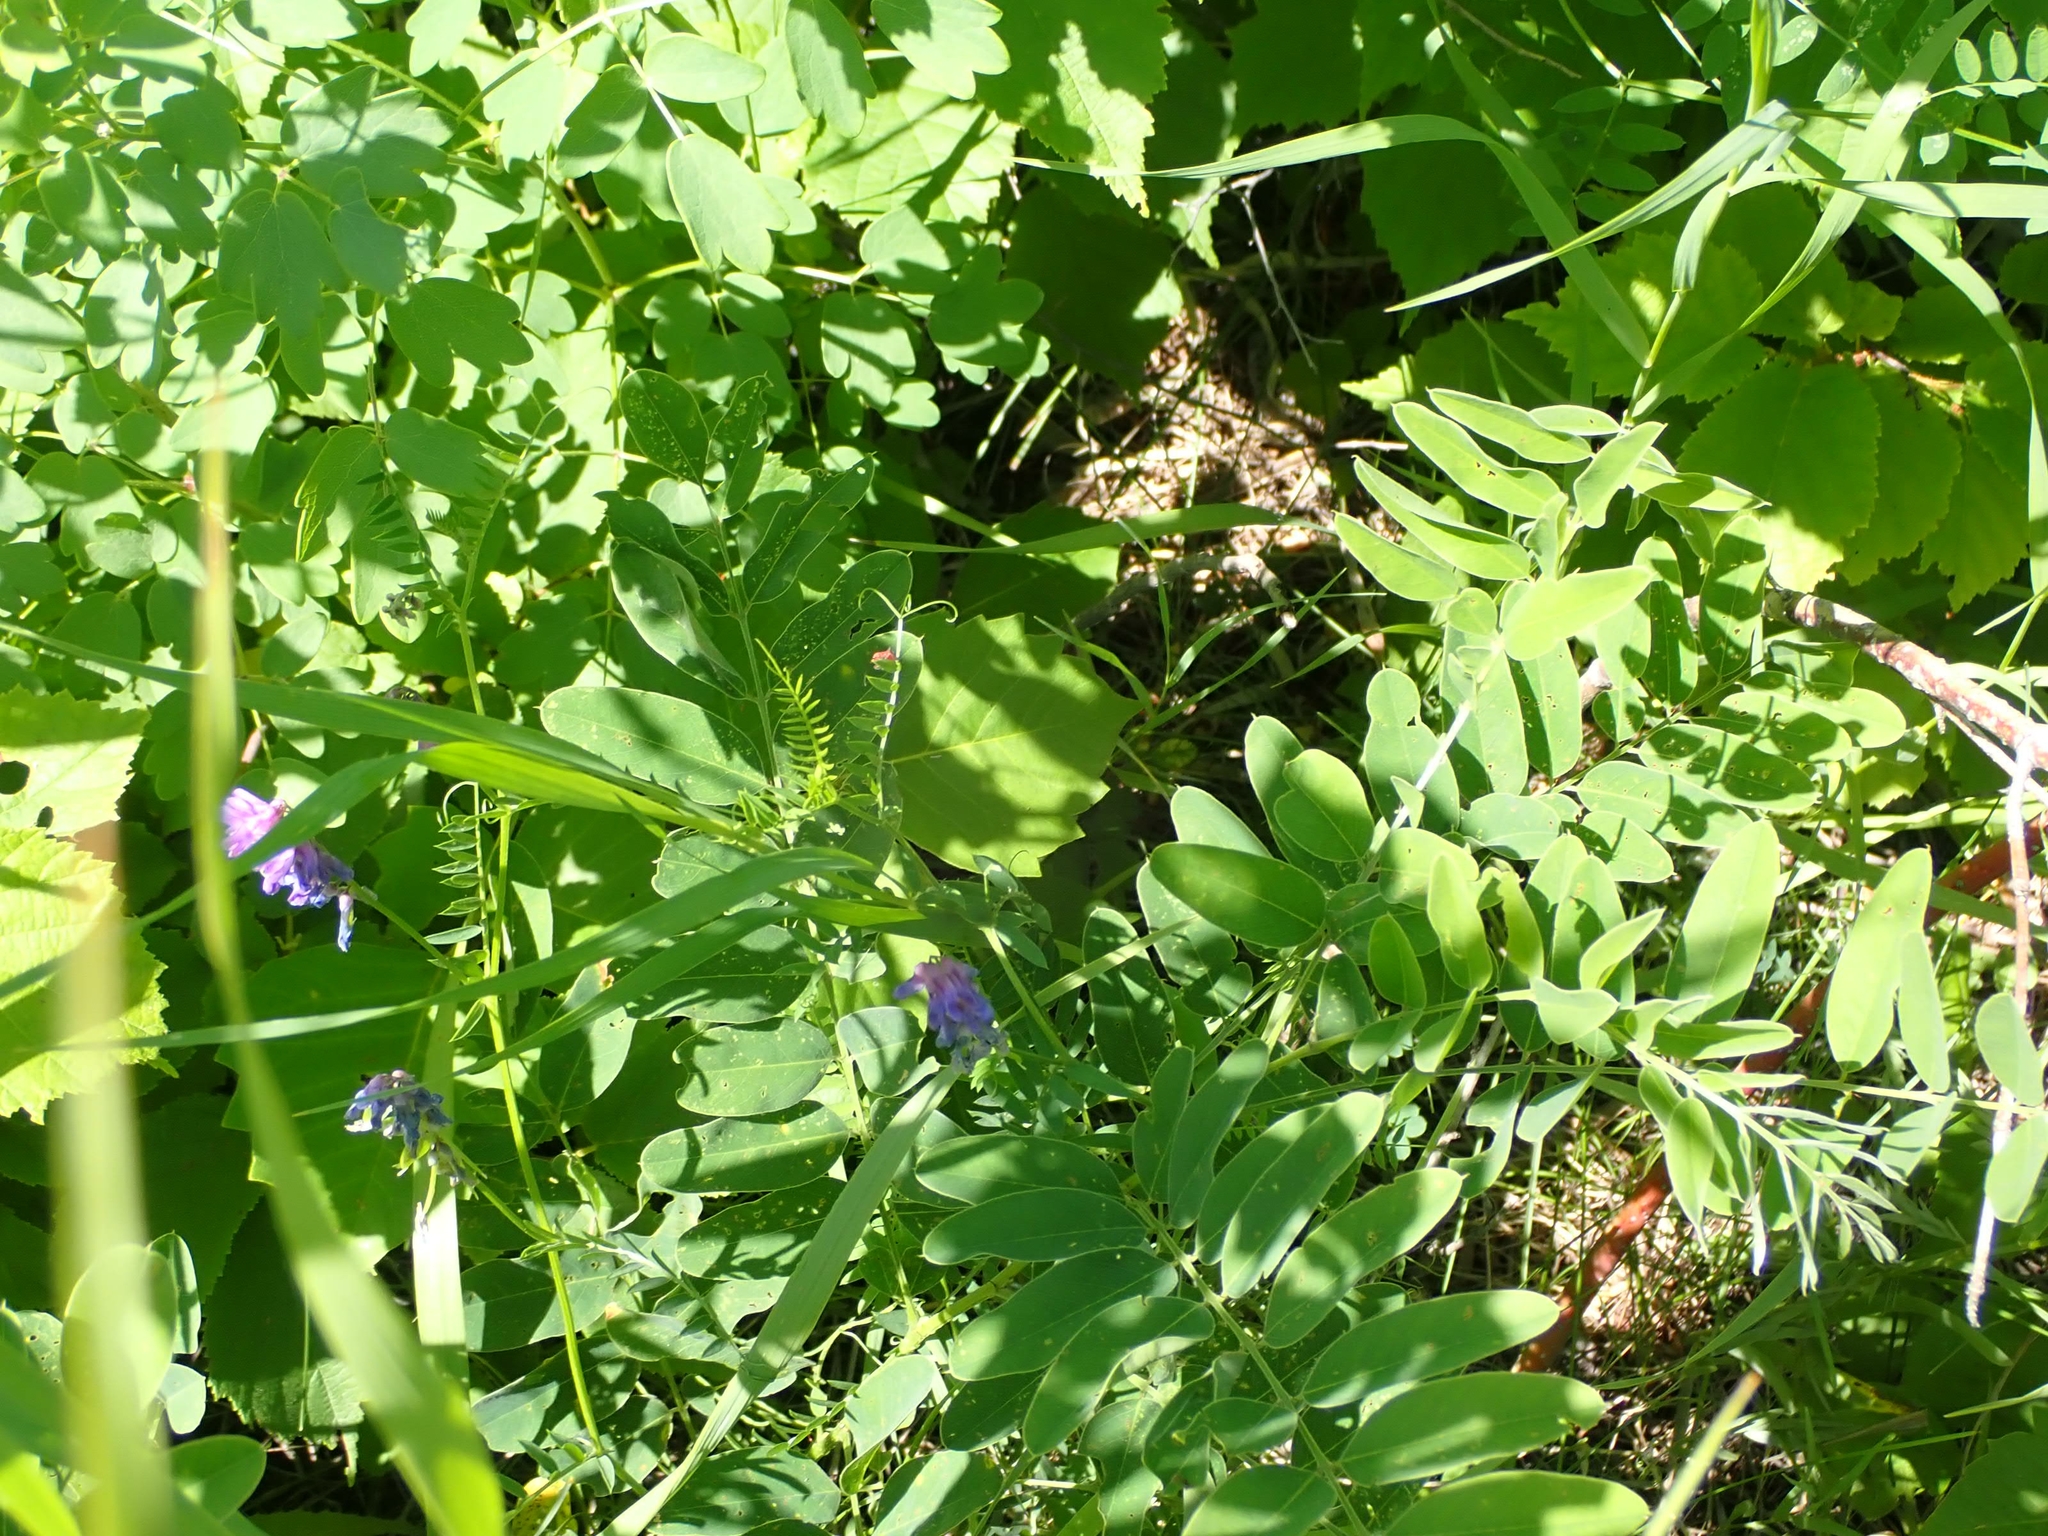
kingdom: Plantae
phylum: Tracheophyta
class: Magnoliopsida
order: Fabales
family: Fabaceae
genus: Vicia
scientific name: Vicia cracca
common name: Bird vetch
